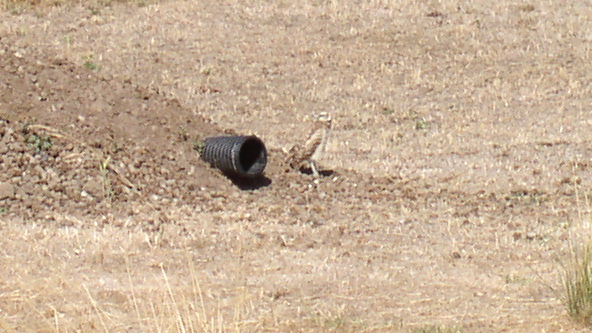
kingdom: Animalia
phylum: Chordata
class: Aves
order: Strigiformes
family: Strigidae
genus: Athene
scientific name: Athene cunicularia
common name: Burrowing owl
